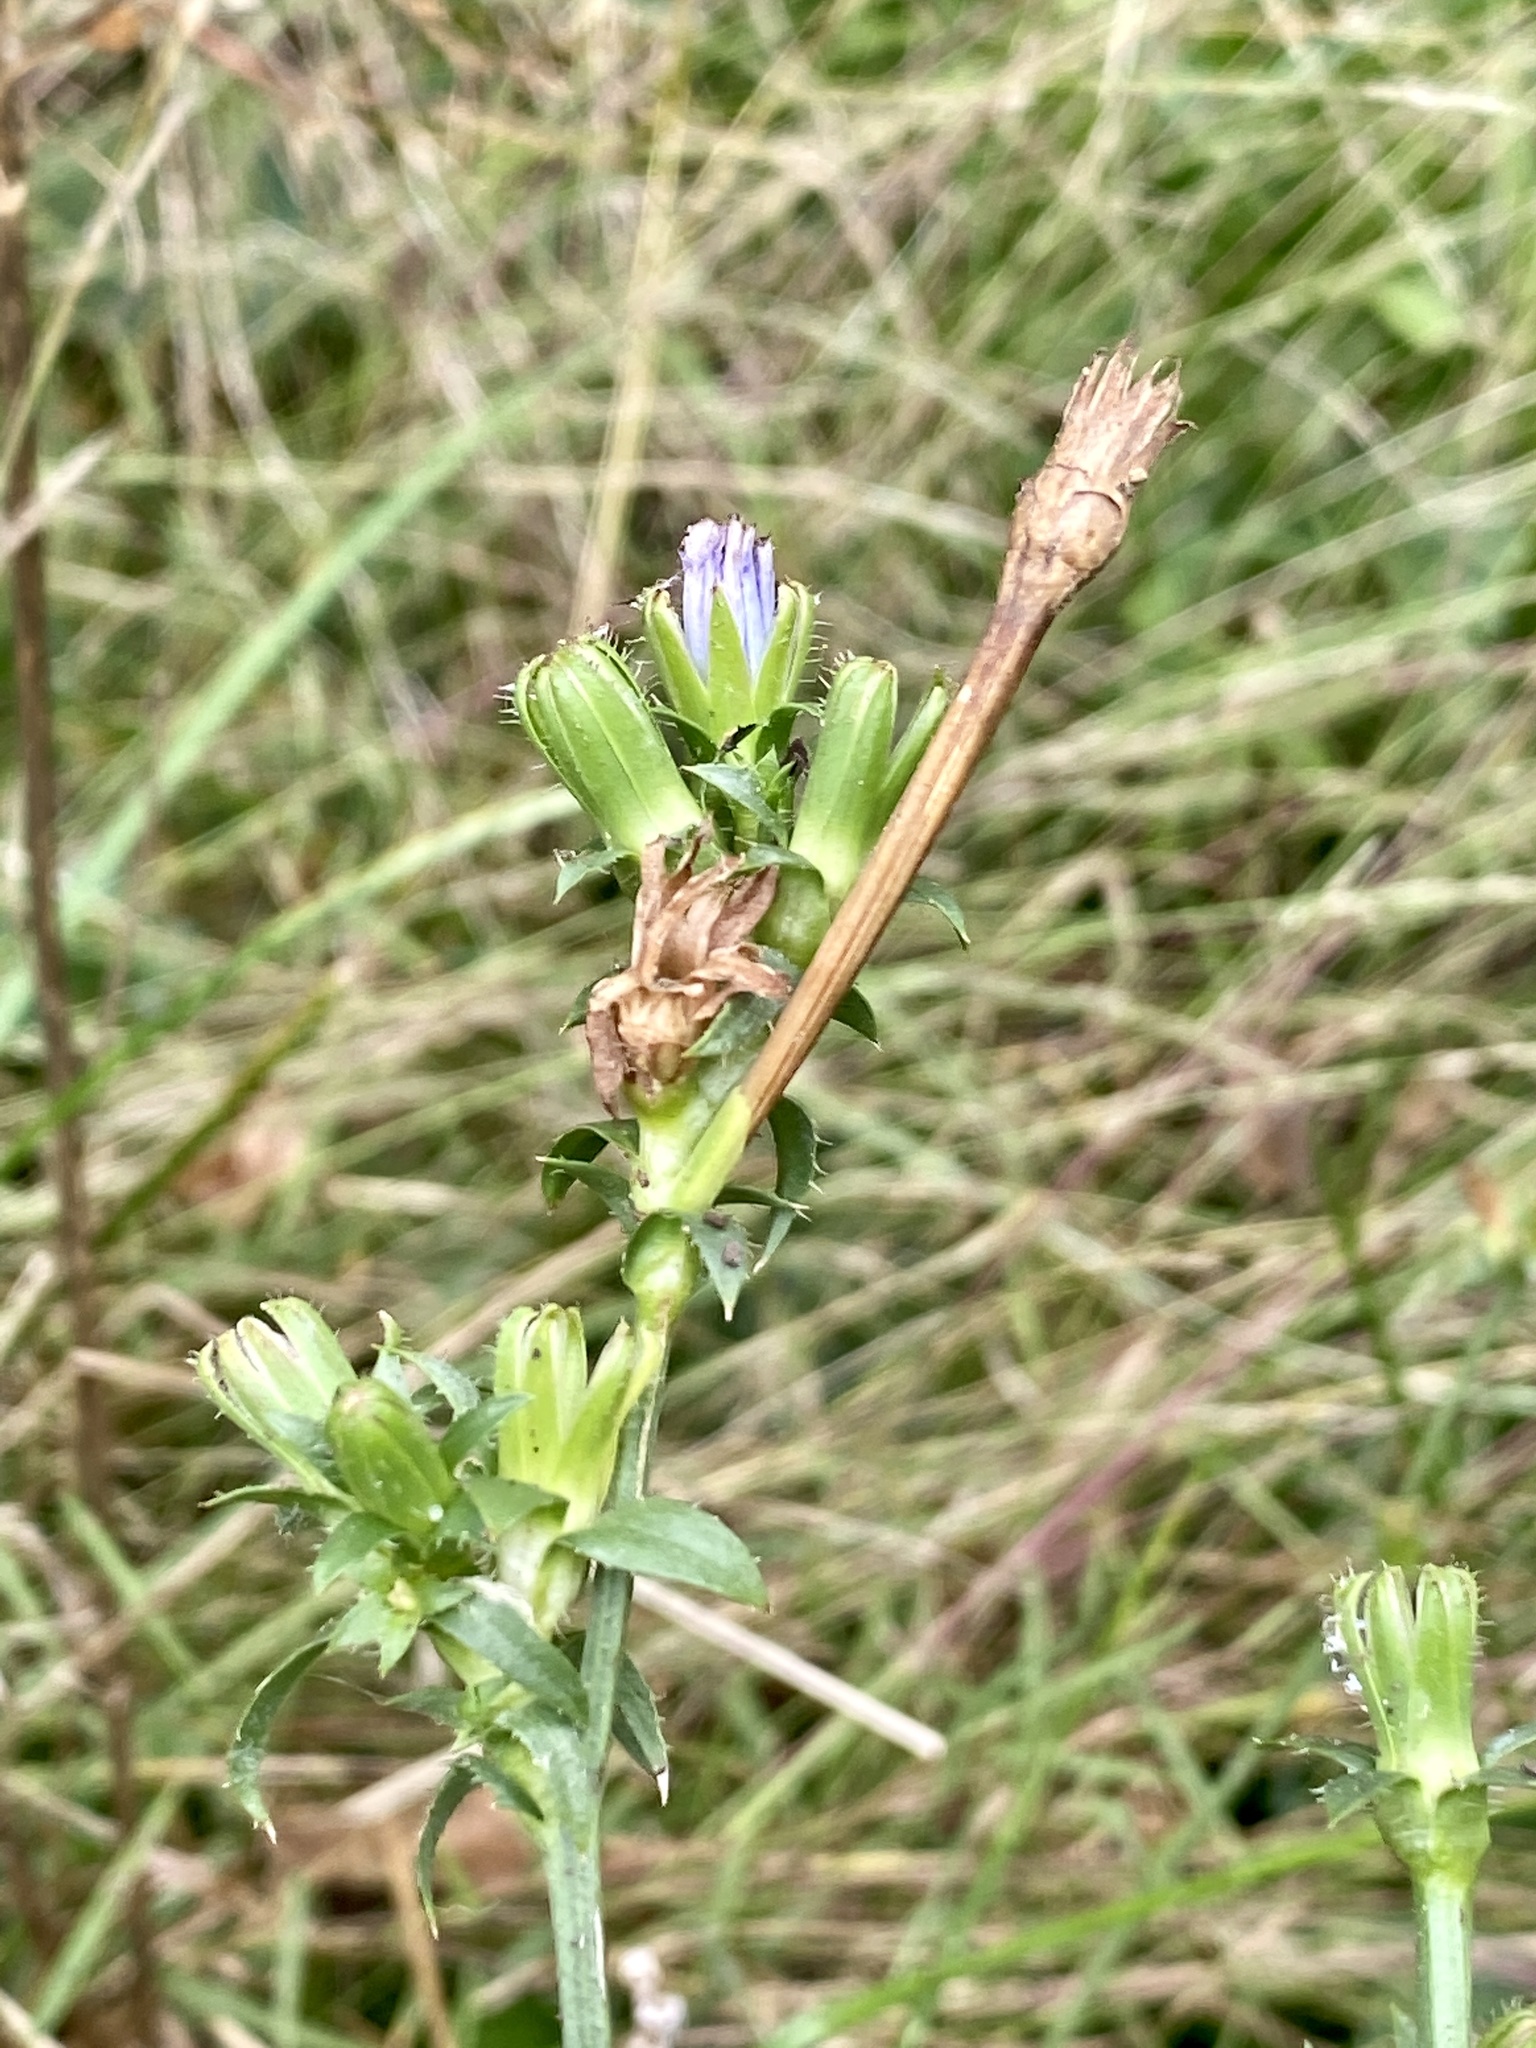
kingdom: Plantae
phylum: Tracheophyta
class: Magnoliopsida
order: Asterales
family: Asteraceae
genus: Cichorium
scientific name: Cichorium intybus
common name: Chicory
